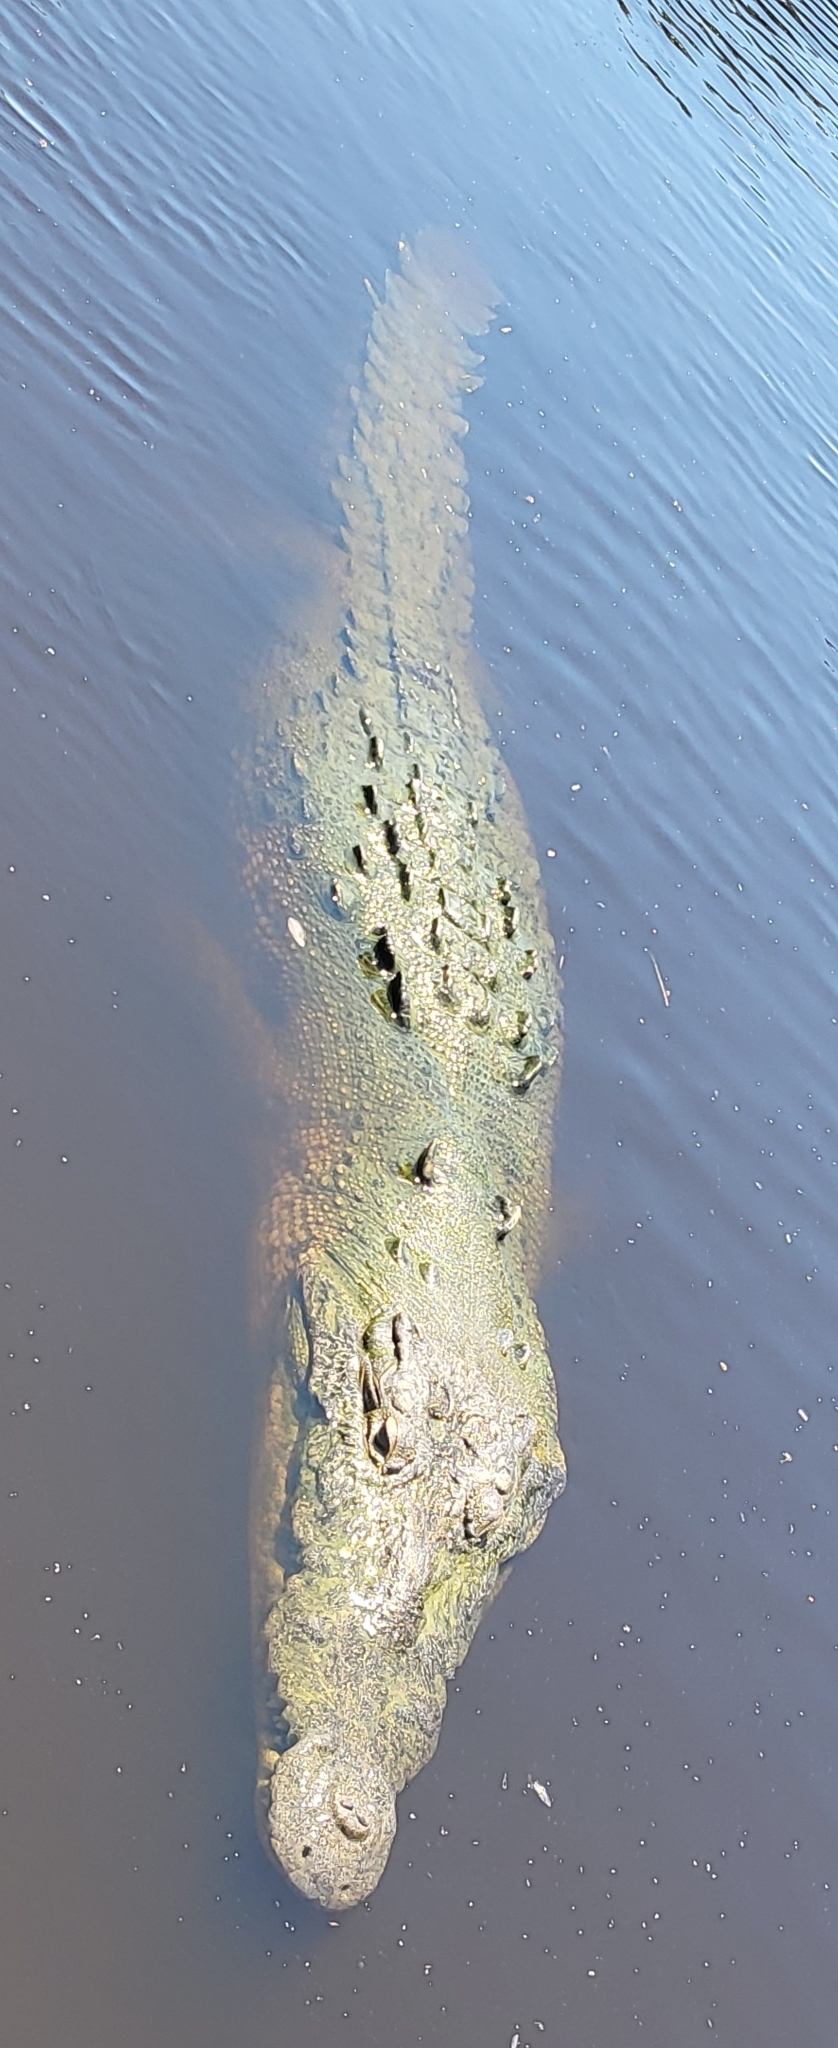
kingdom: Animalia
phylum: Chordata
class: Crocodylia
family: Crocodylidae
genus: Crocodylus
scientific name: Crocodylus acutus
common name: American crocodile
